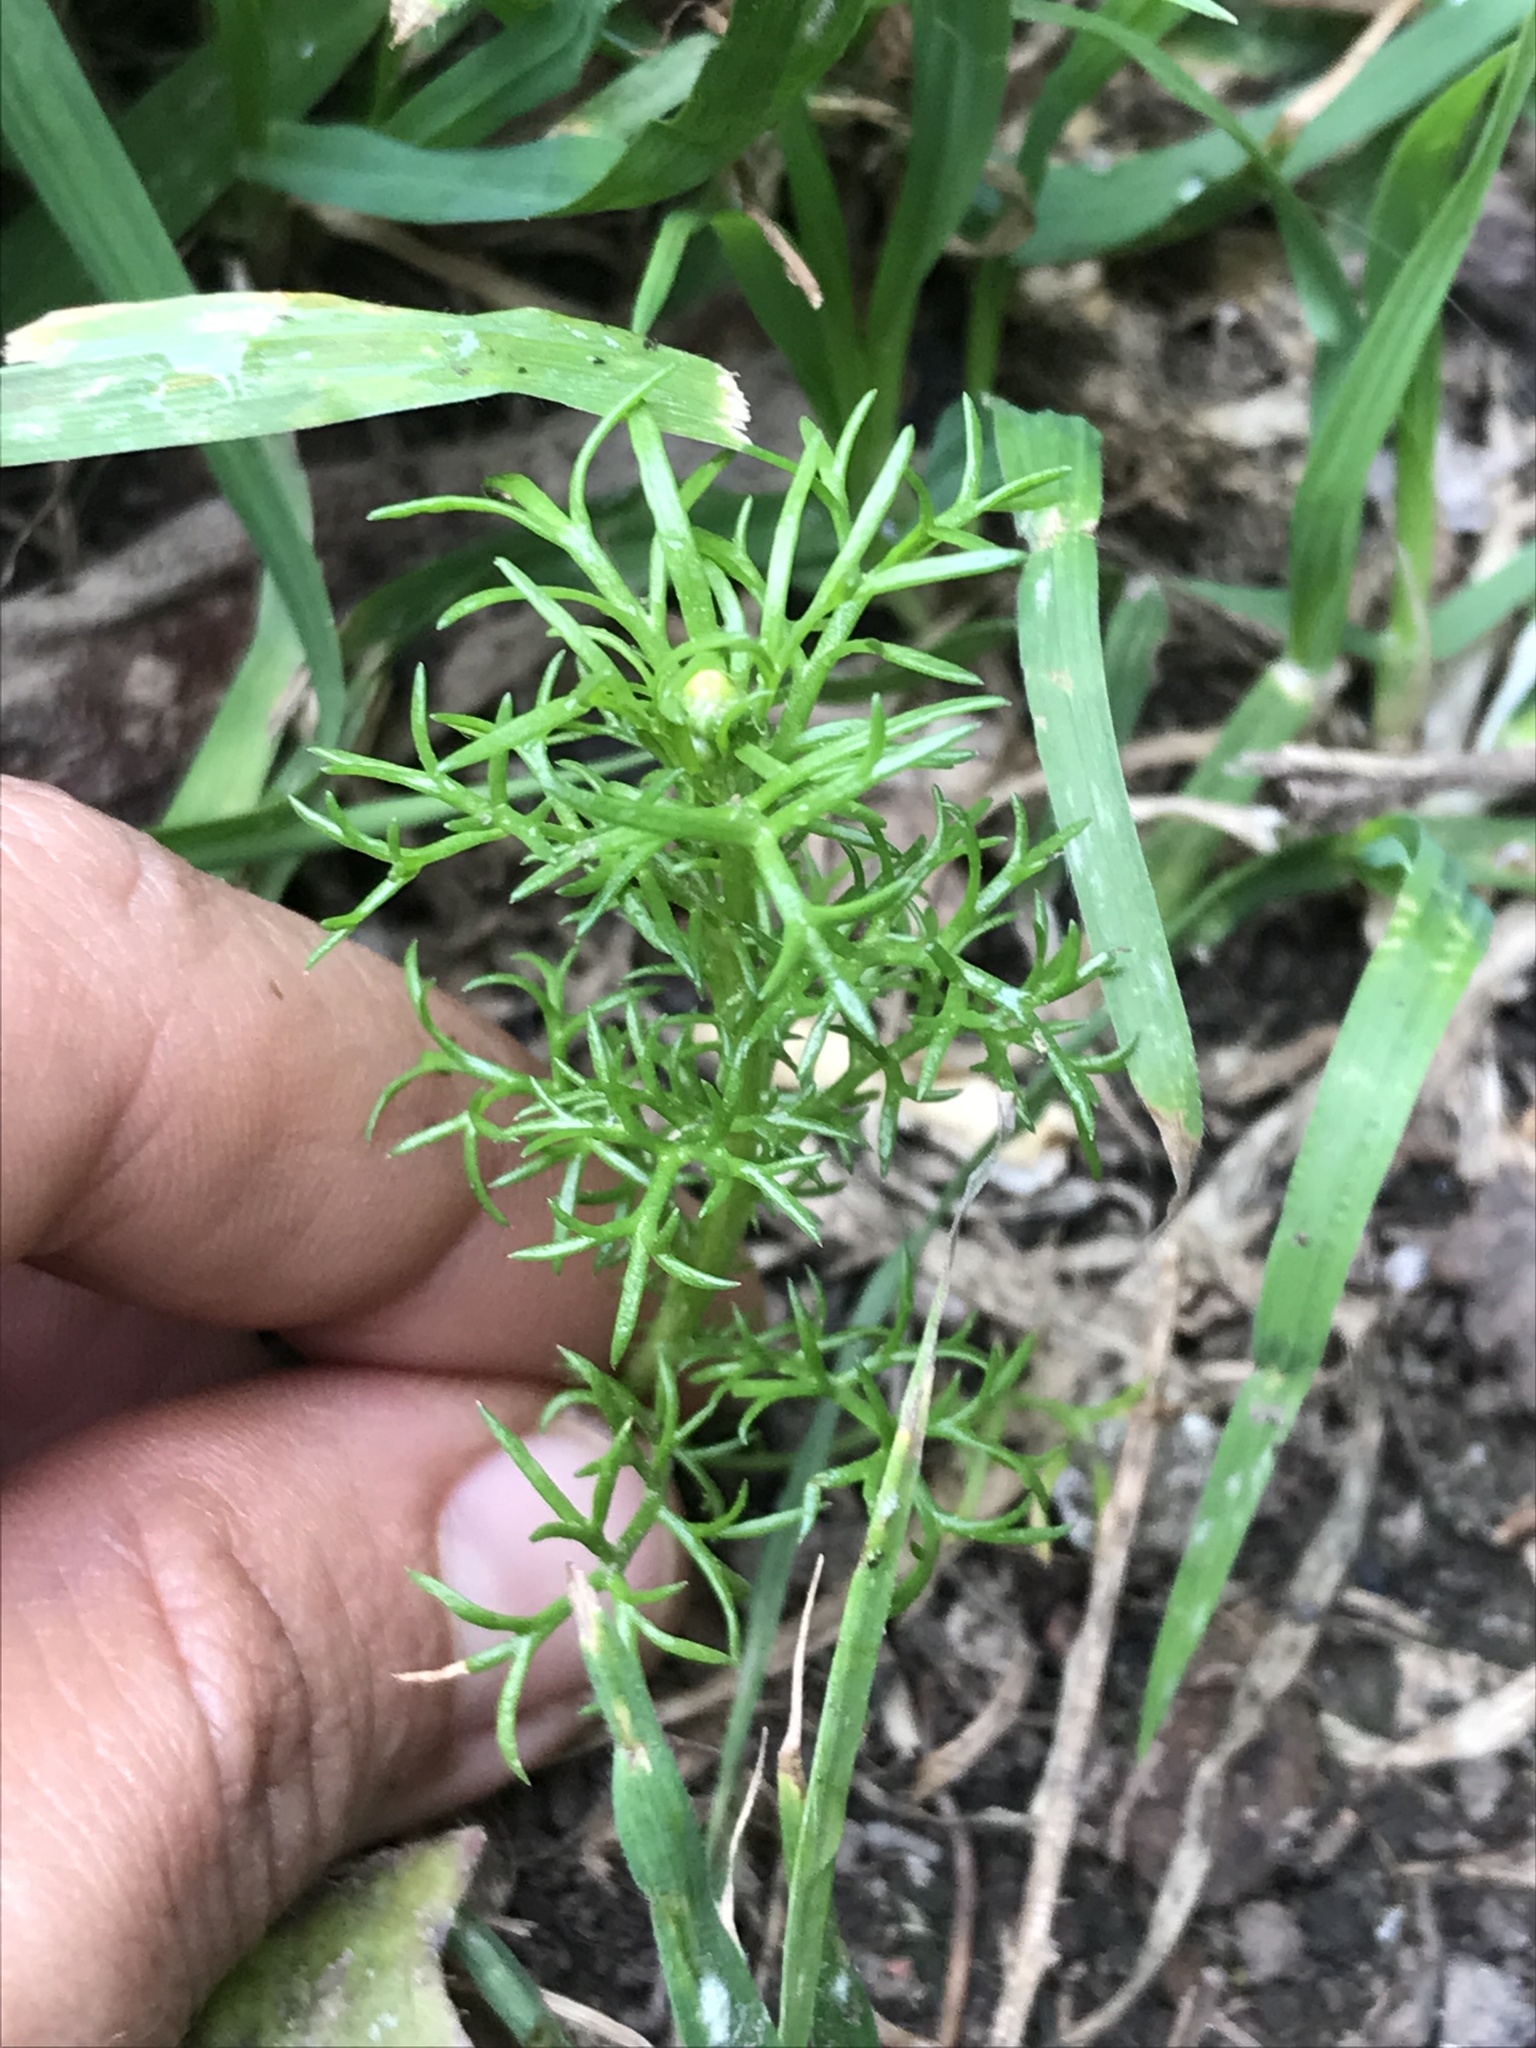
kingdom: Plantae
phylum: Tracheophyta
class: Magnoliopsida
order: Asterales
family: Asteraceae
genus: Cotula
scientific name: Cotula australis
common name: Australian waterbuttons
